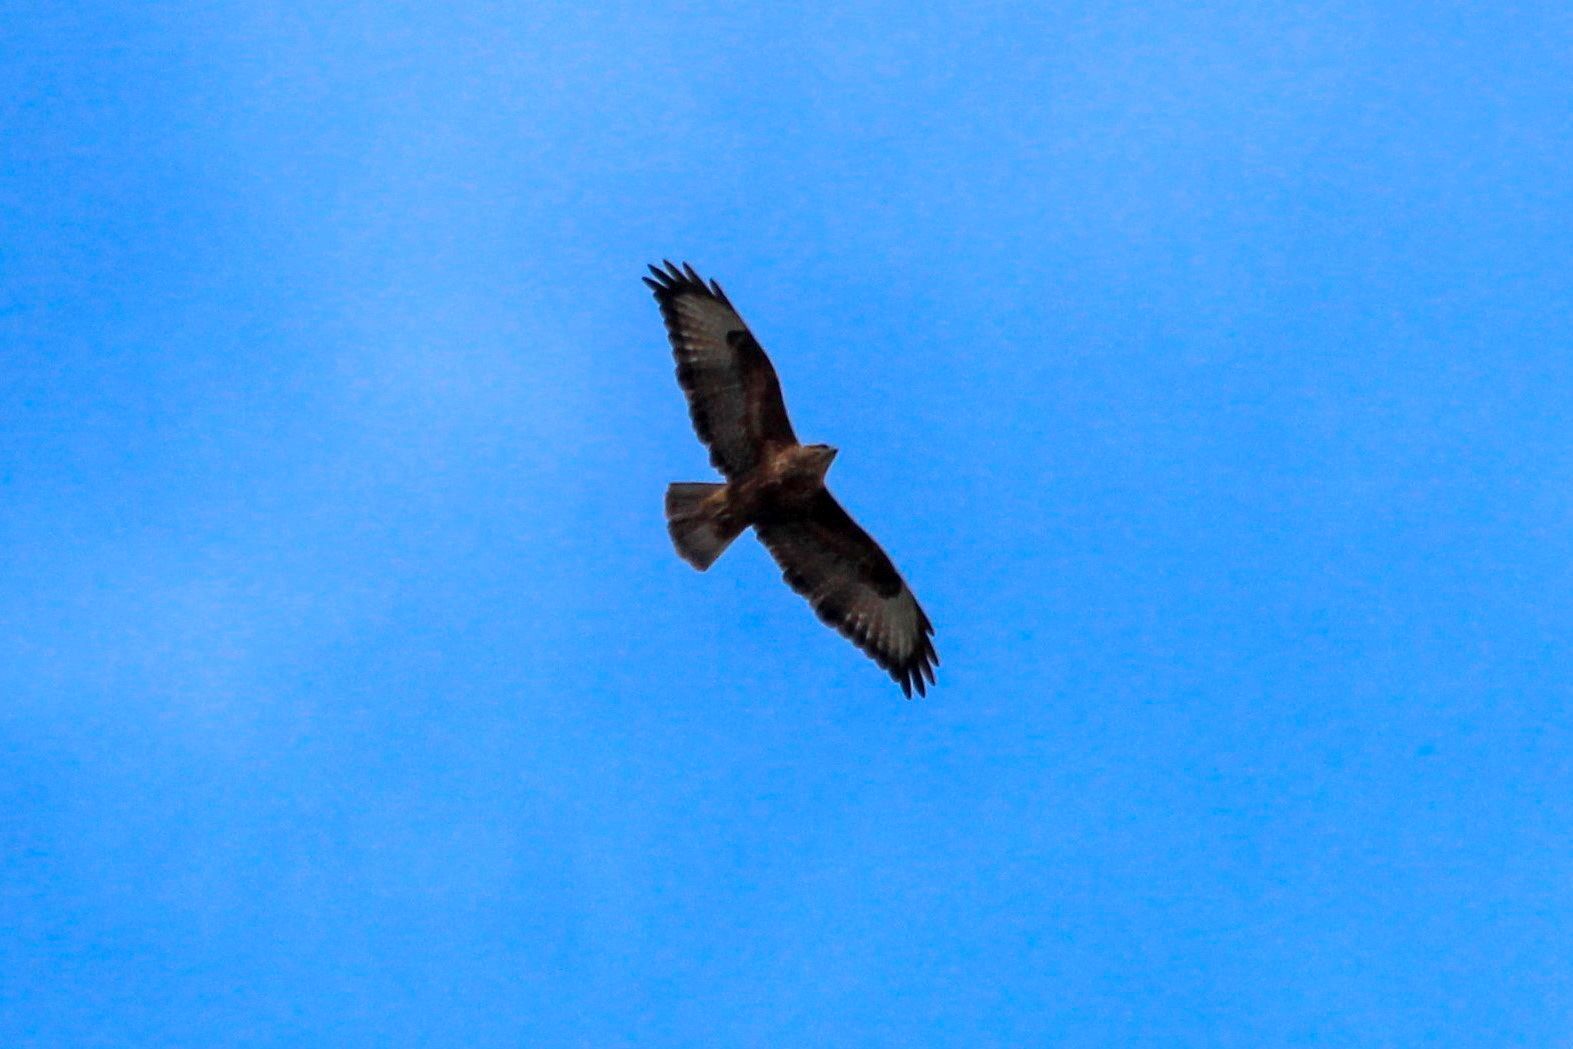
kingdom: Animalia
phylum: Chordata
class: Aves
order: Accipitriformes
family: Accipitridae
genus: Buteo
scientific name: Buteo buteo
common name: Common buzzard
